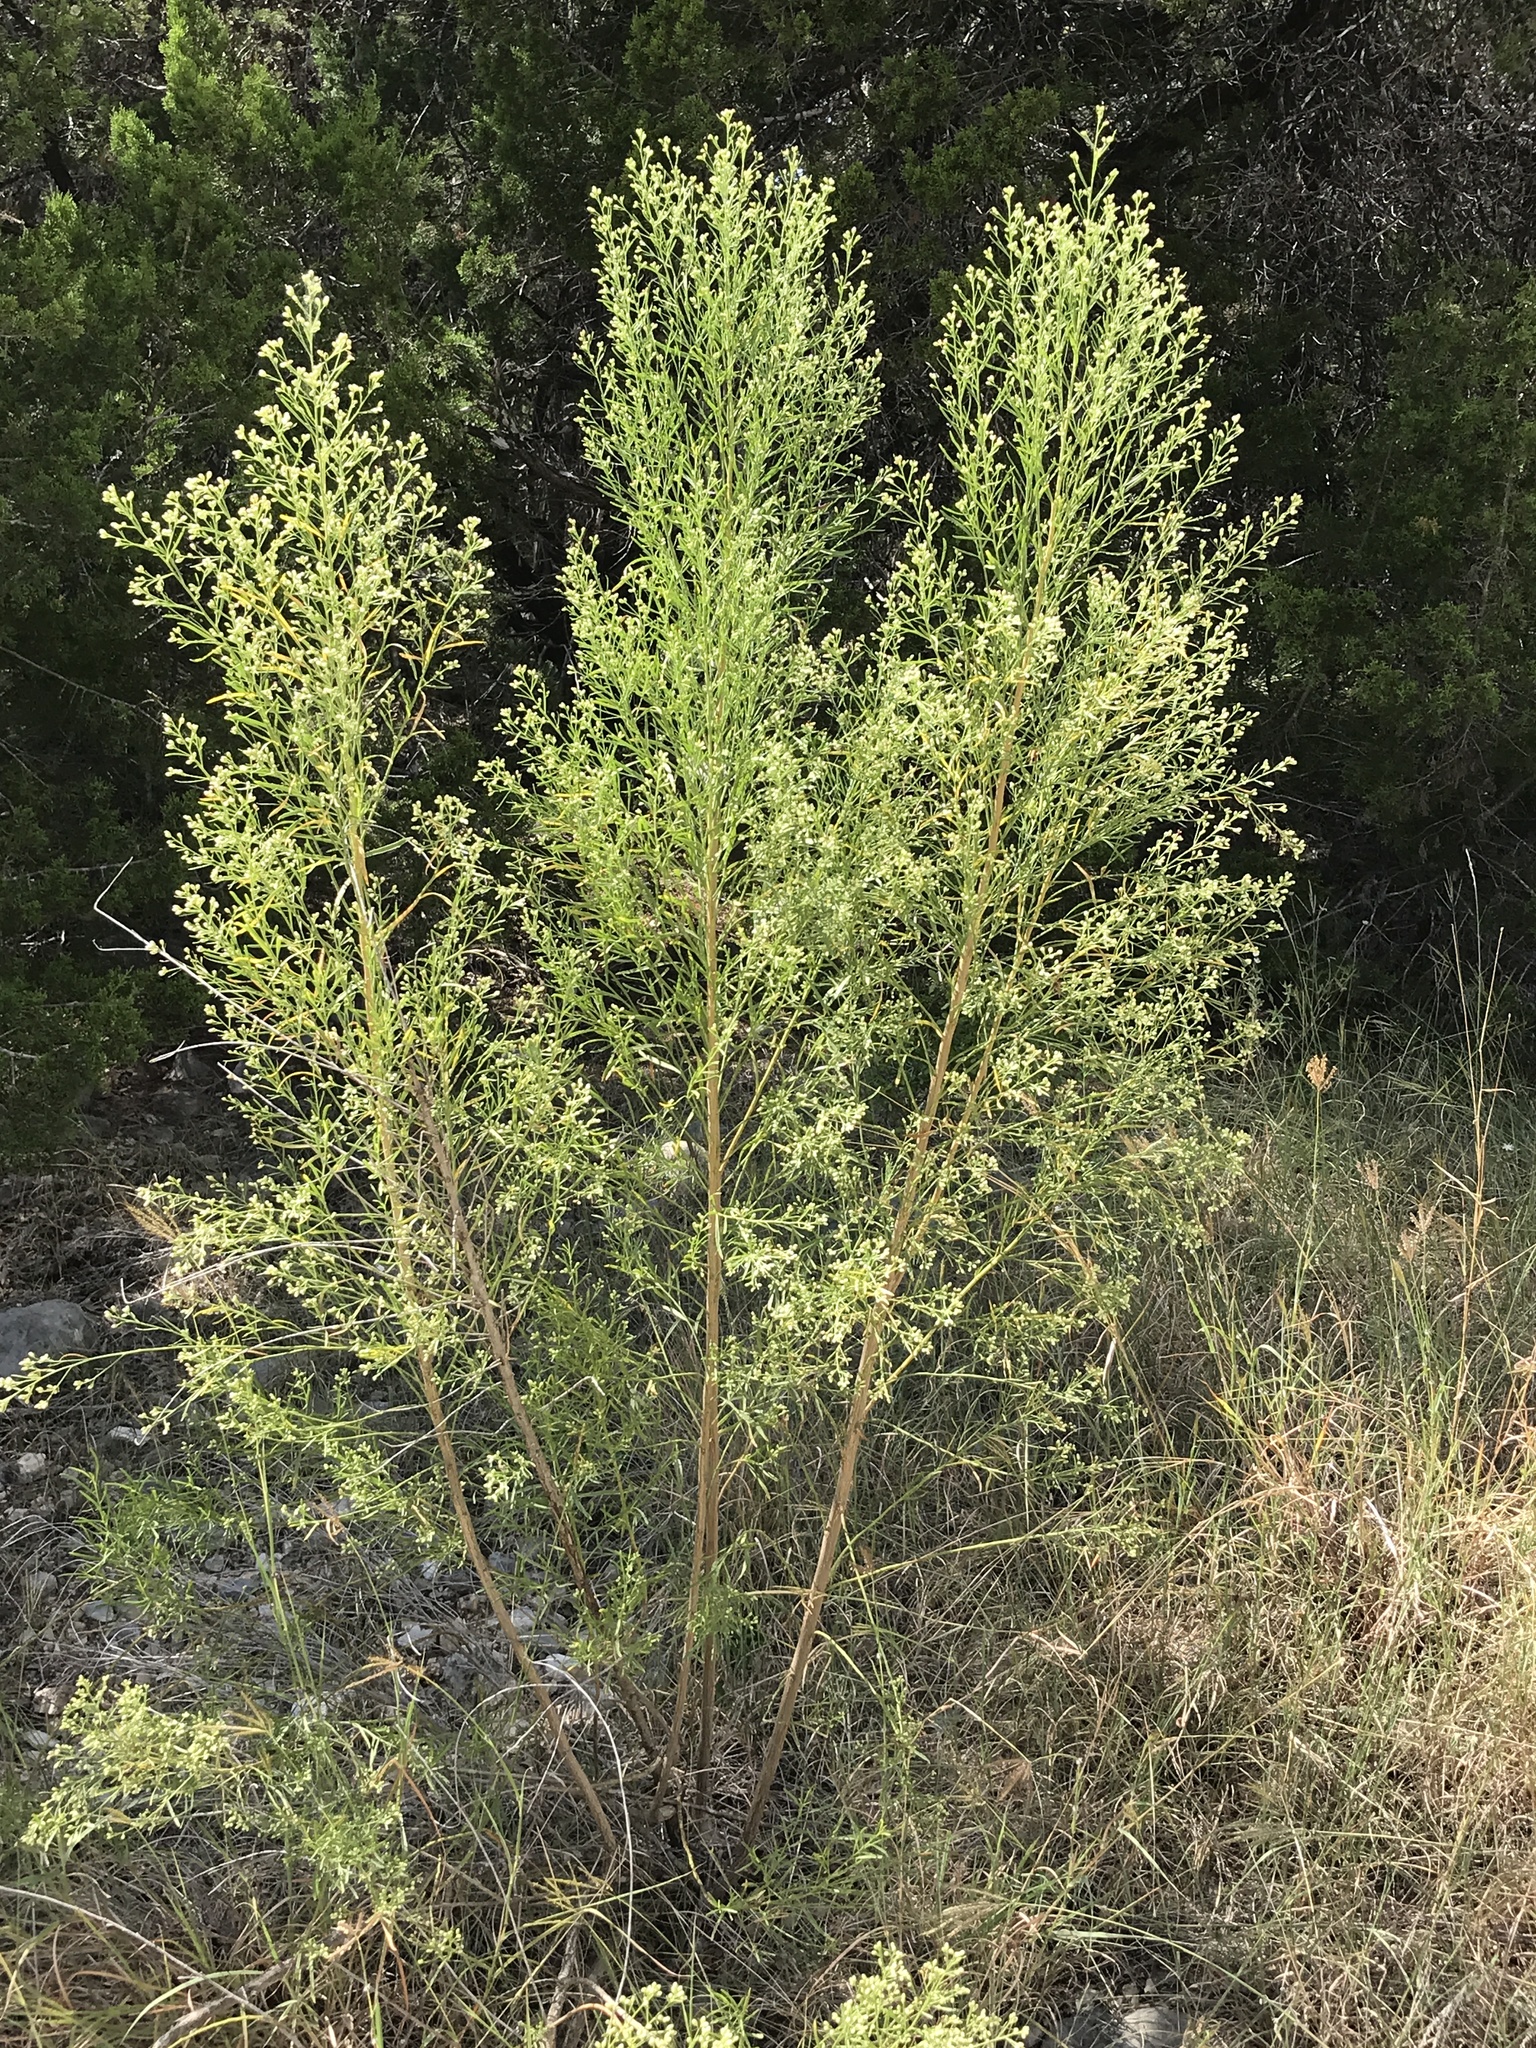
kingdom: Plantae
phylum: Tracheophyta
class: Magnoliopsida
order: Asterales
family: Asteraceae
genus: Baccharis
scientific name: Baccharis neglecta
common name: Roosevelt-weed
